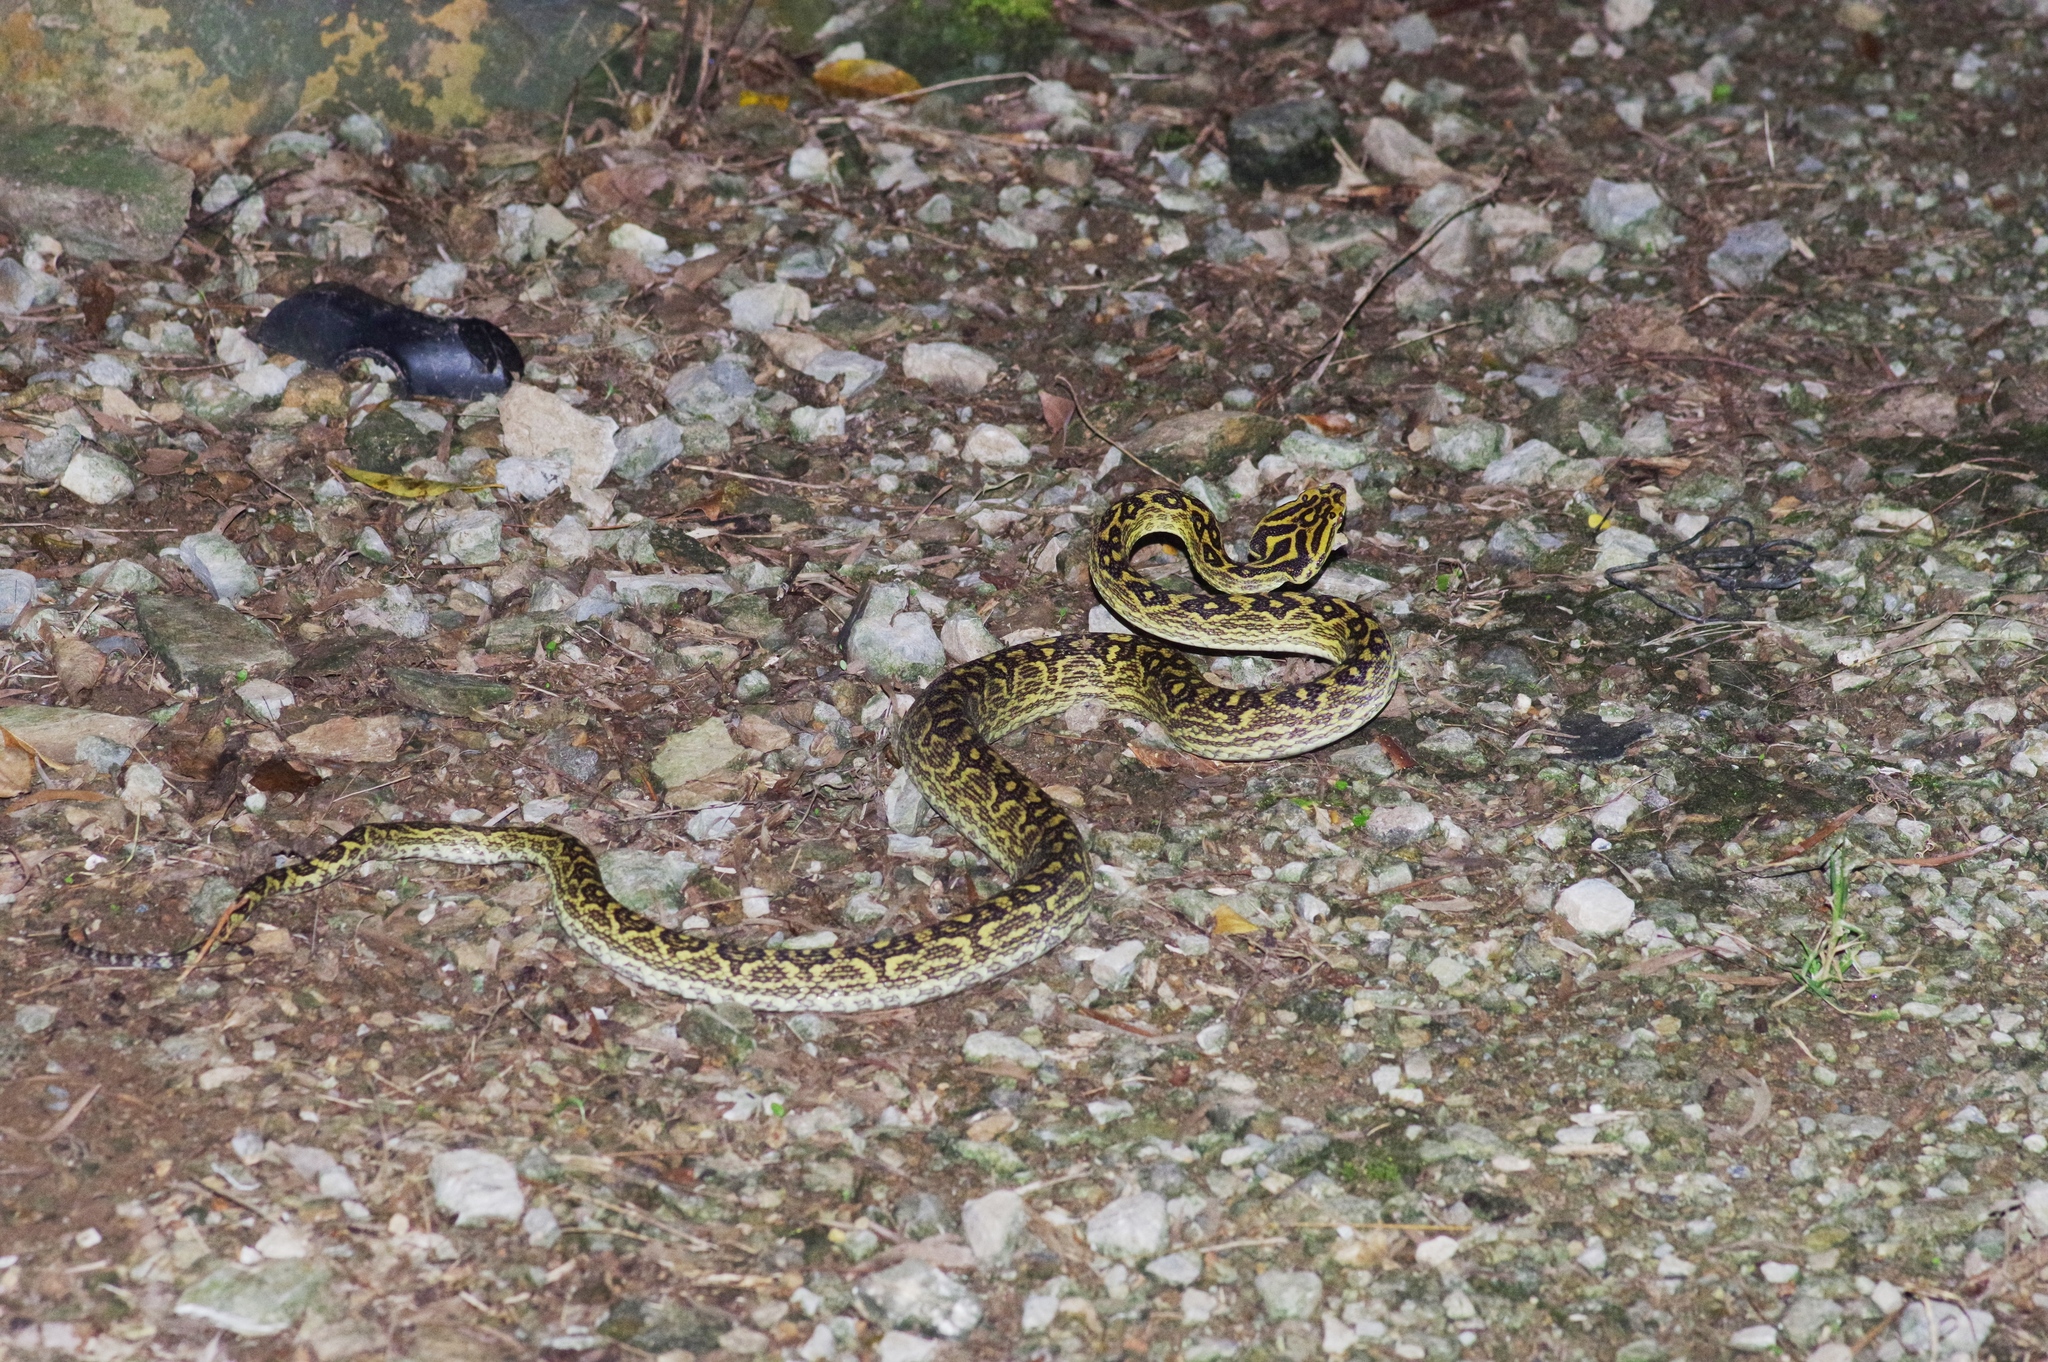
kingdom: Animalia
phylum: Chordata
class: Squamata
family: Viperidae
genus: Protobothrops
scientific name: Protobothrops flavoviridis
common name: Habu
